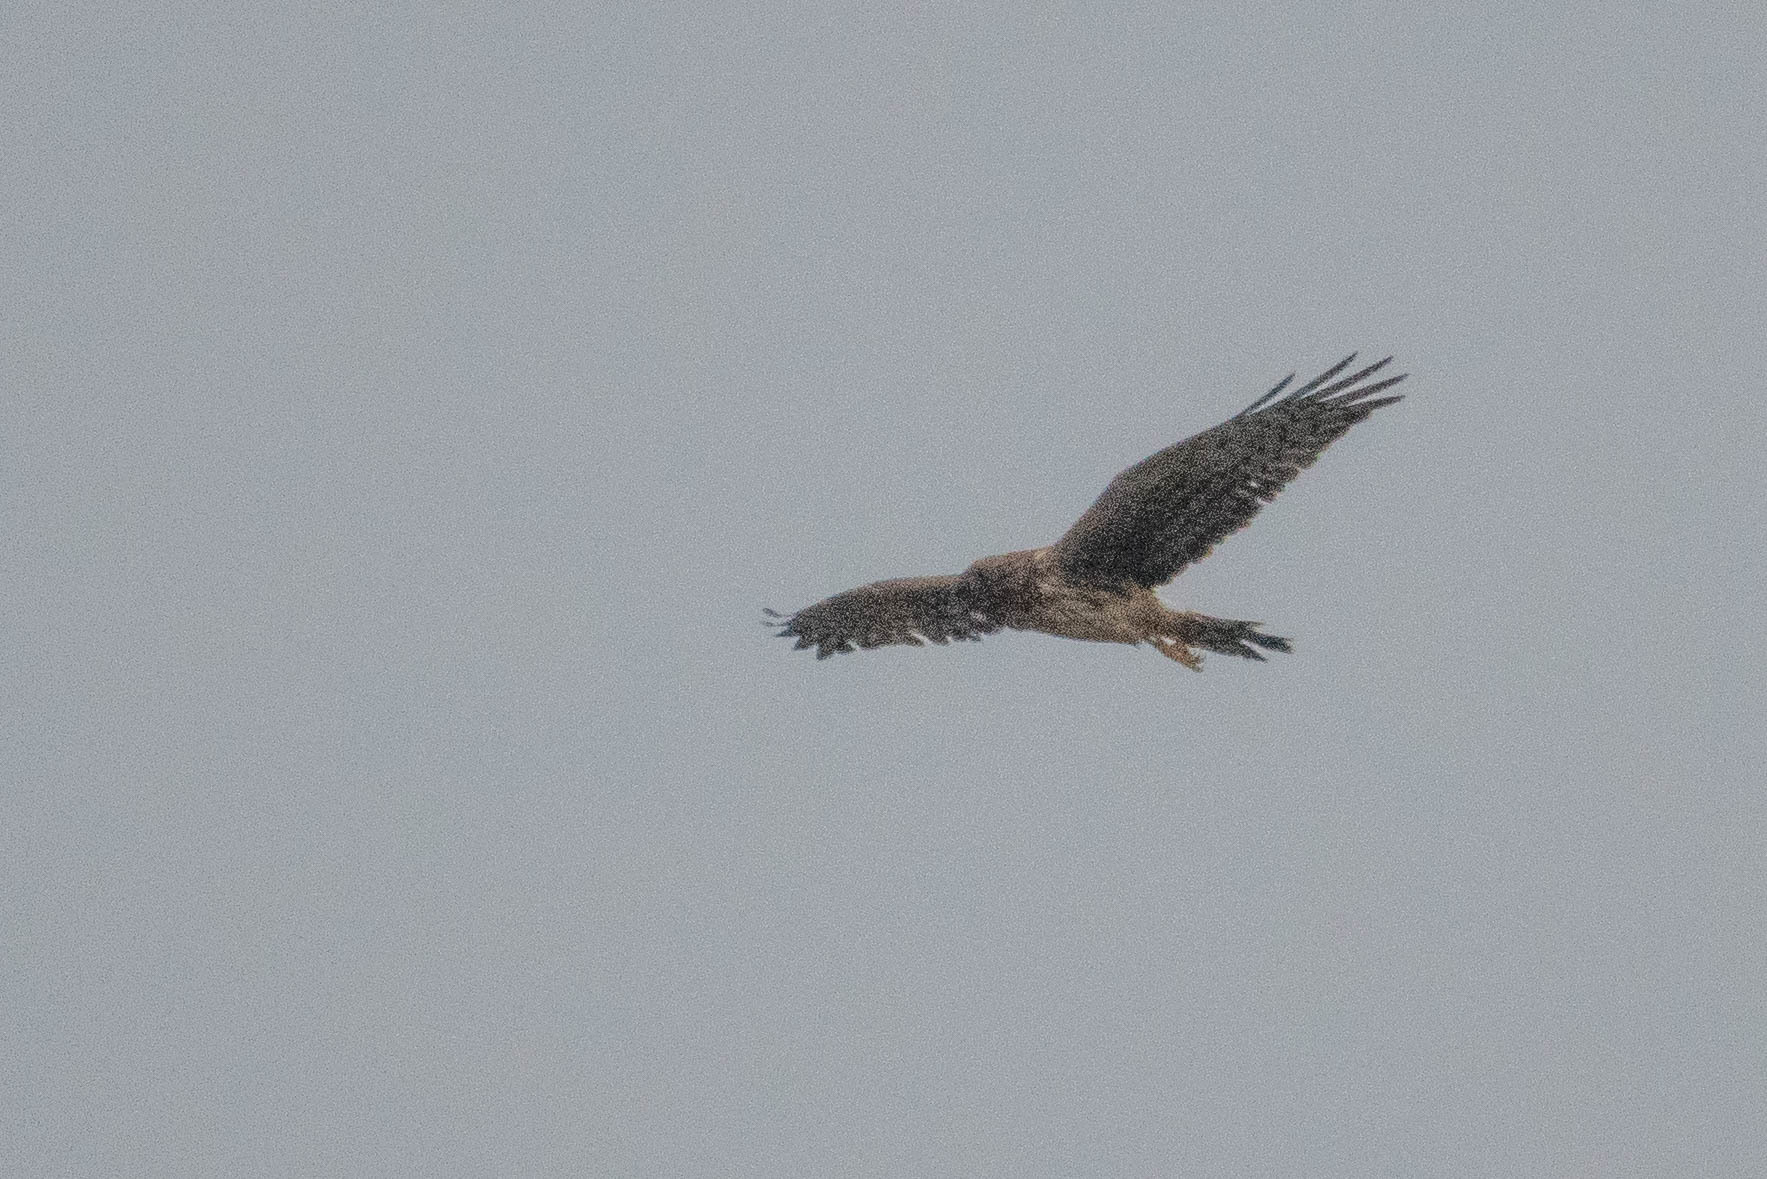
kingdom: Animalia
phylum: Chordata
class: Aves
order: Accipitriformes
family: Accipitridae
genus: Circus
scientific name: Circus cyaneus
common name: Hen harrier
